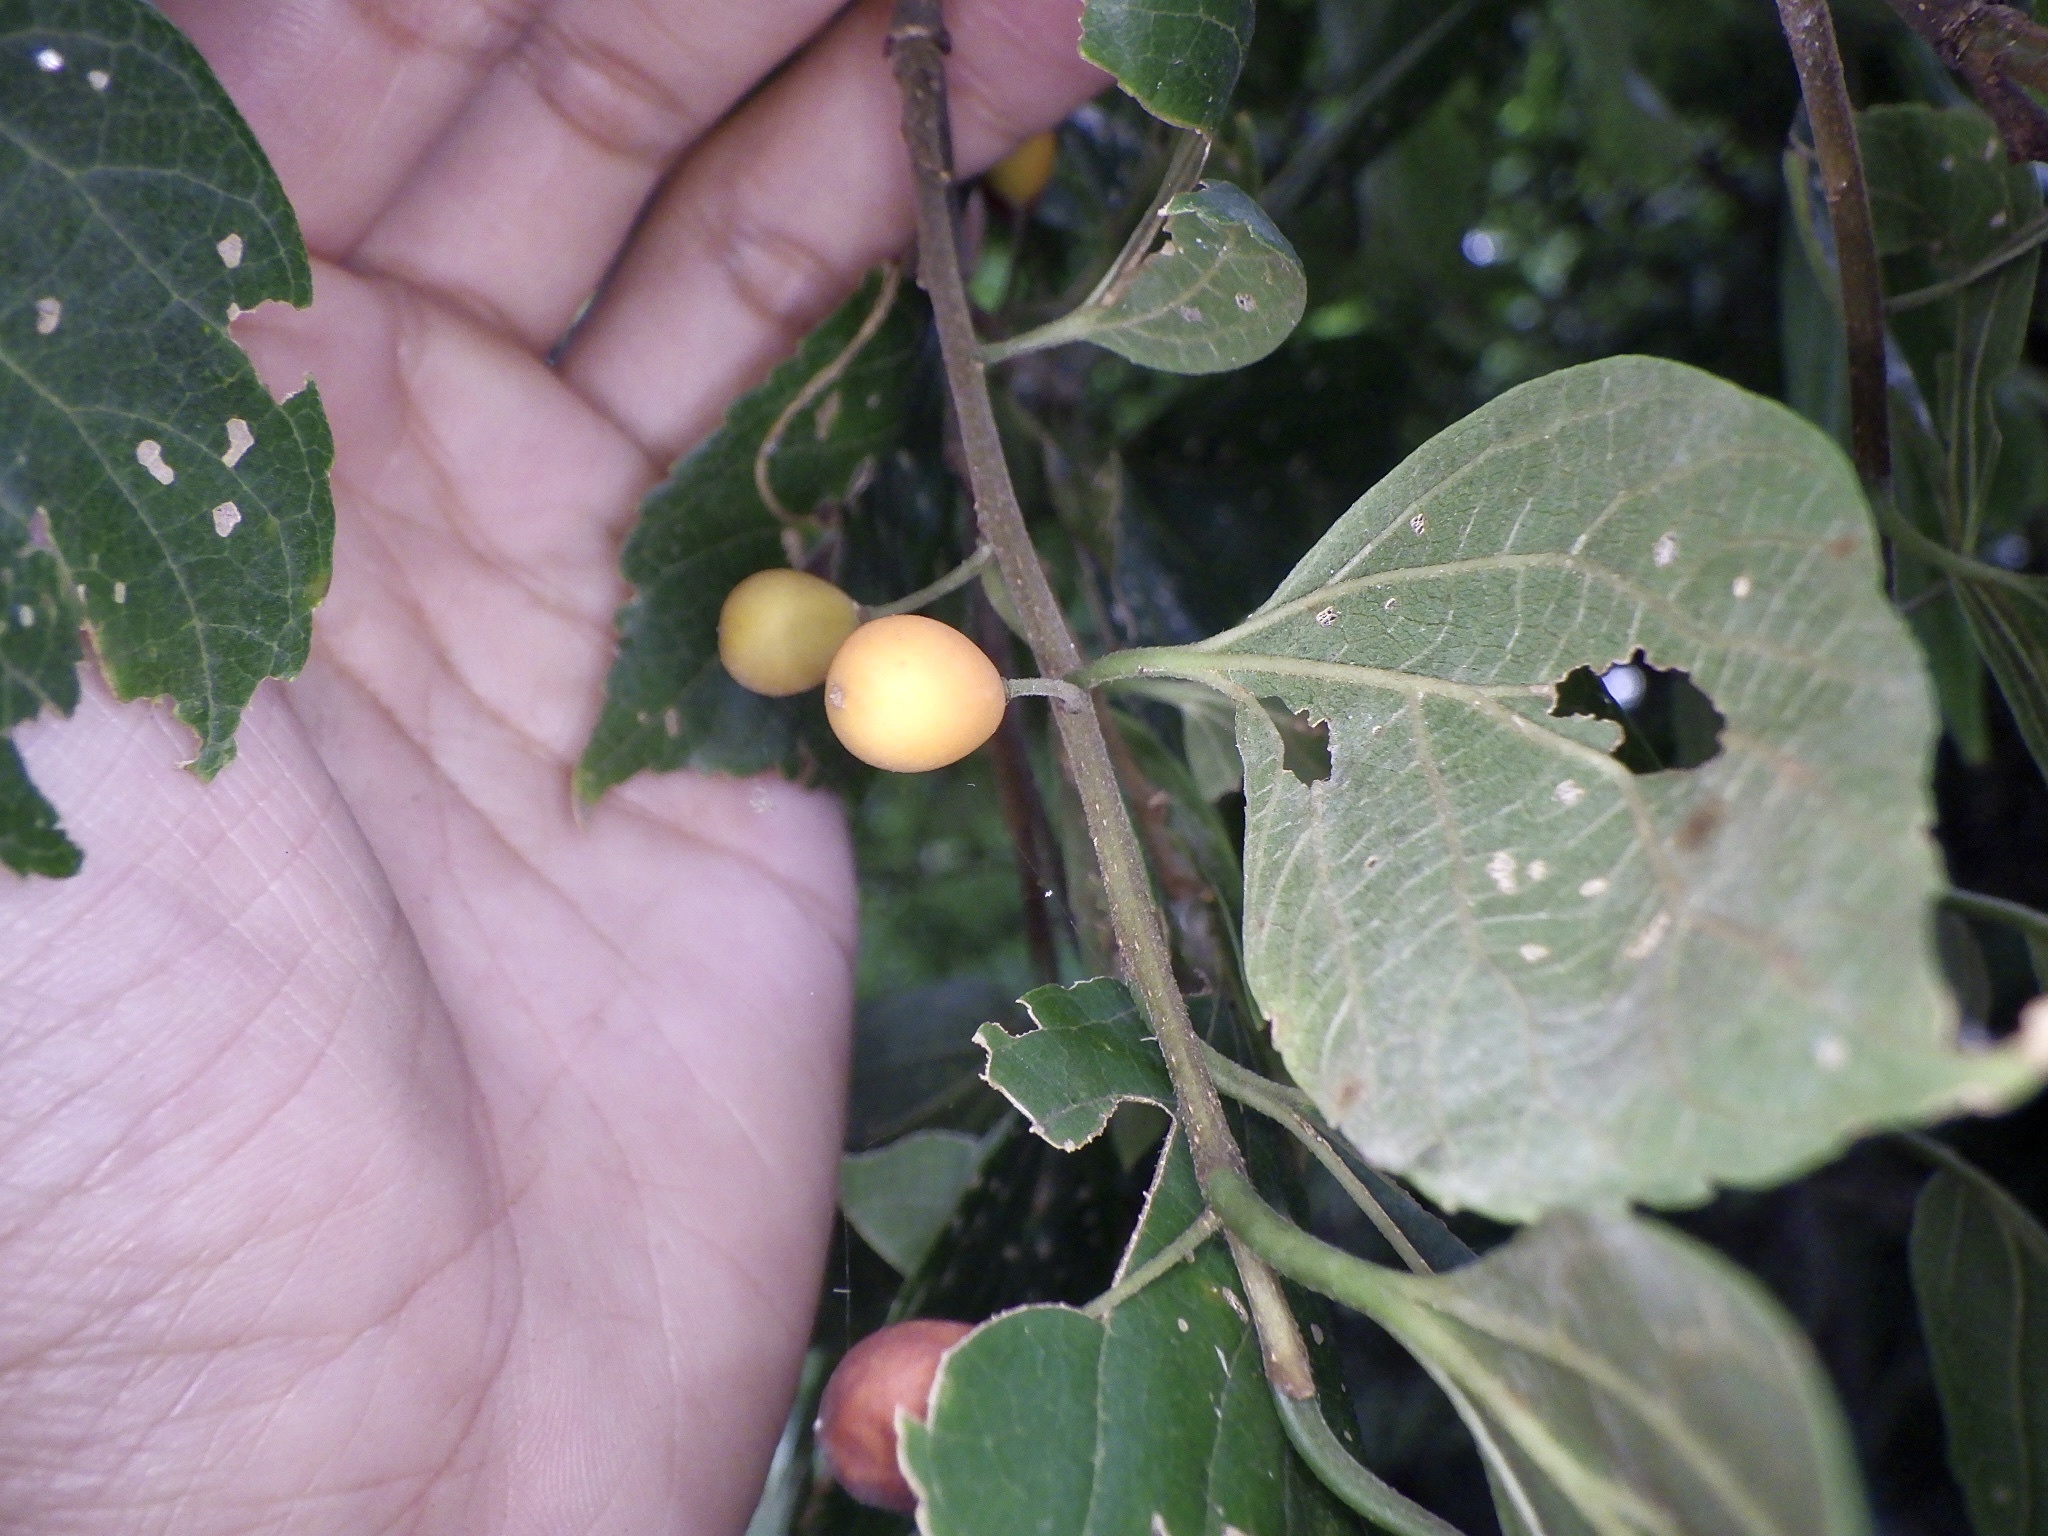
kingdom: Plantae
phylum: Tracheophyta
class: Magnoliopsida
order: Rosales
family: Cannabaceae
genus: Celtis
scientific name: Celtis sinensis
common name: Chinese hackberry
